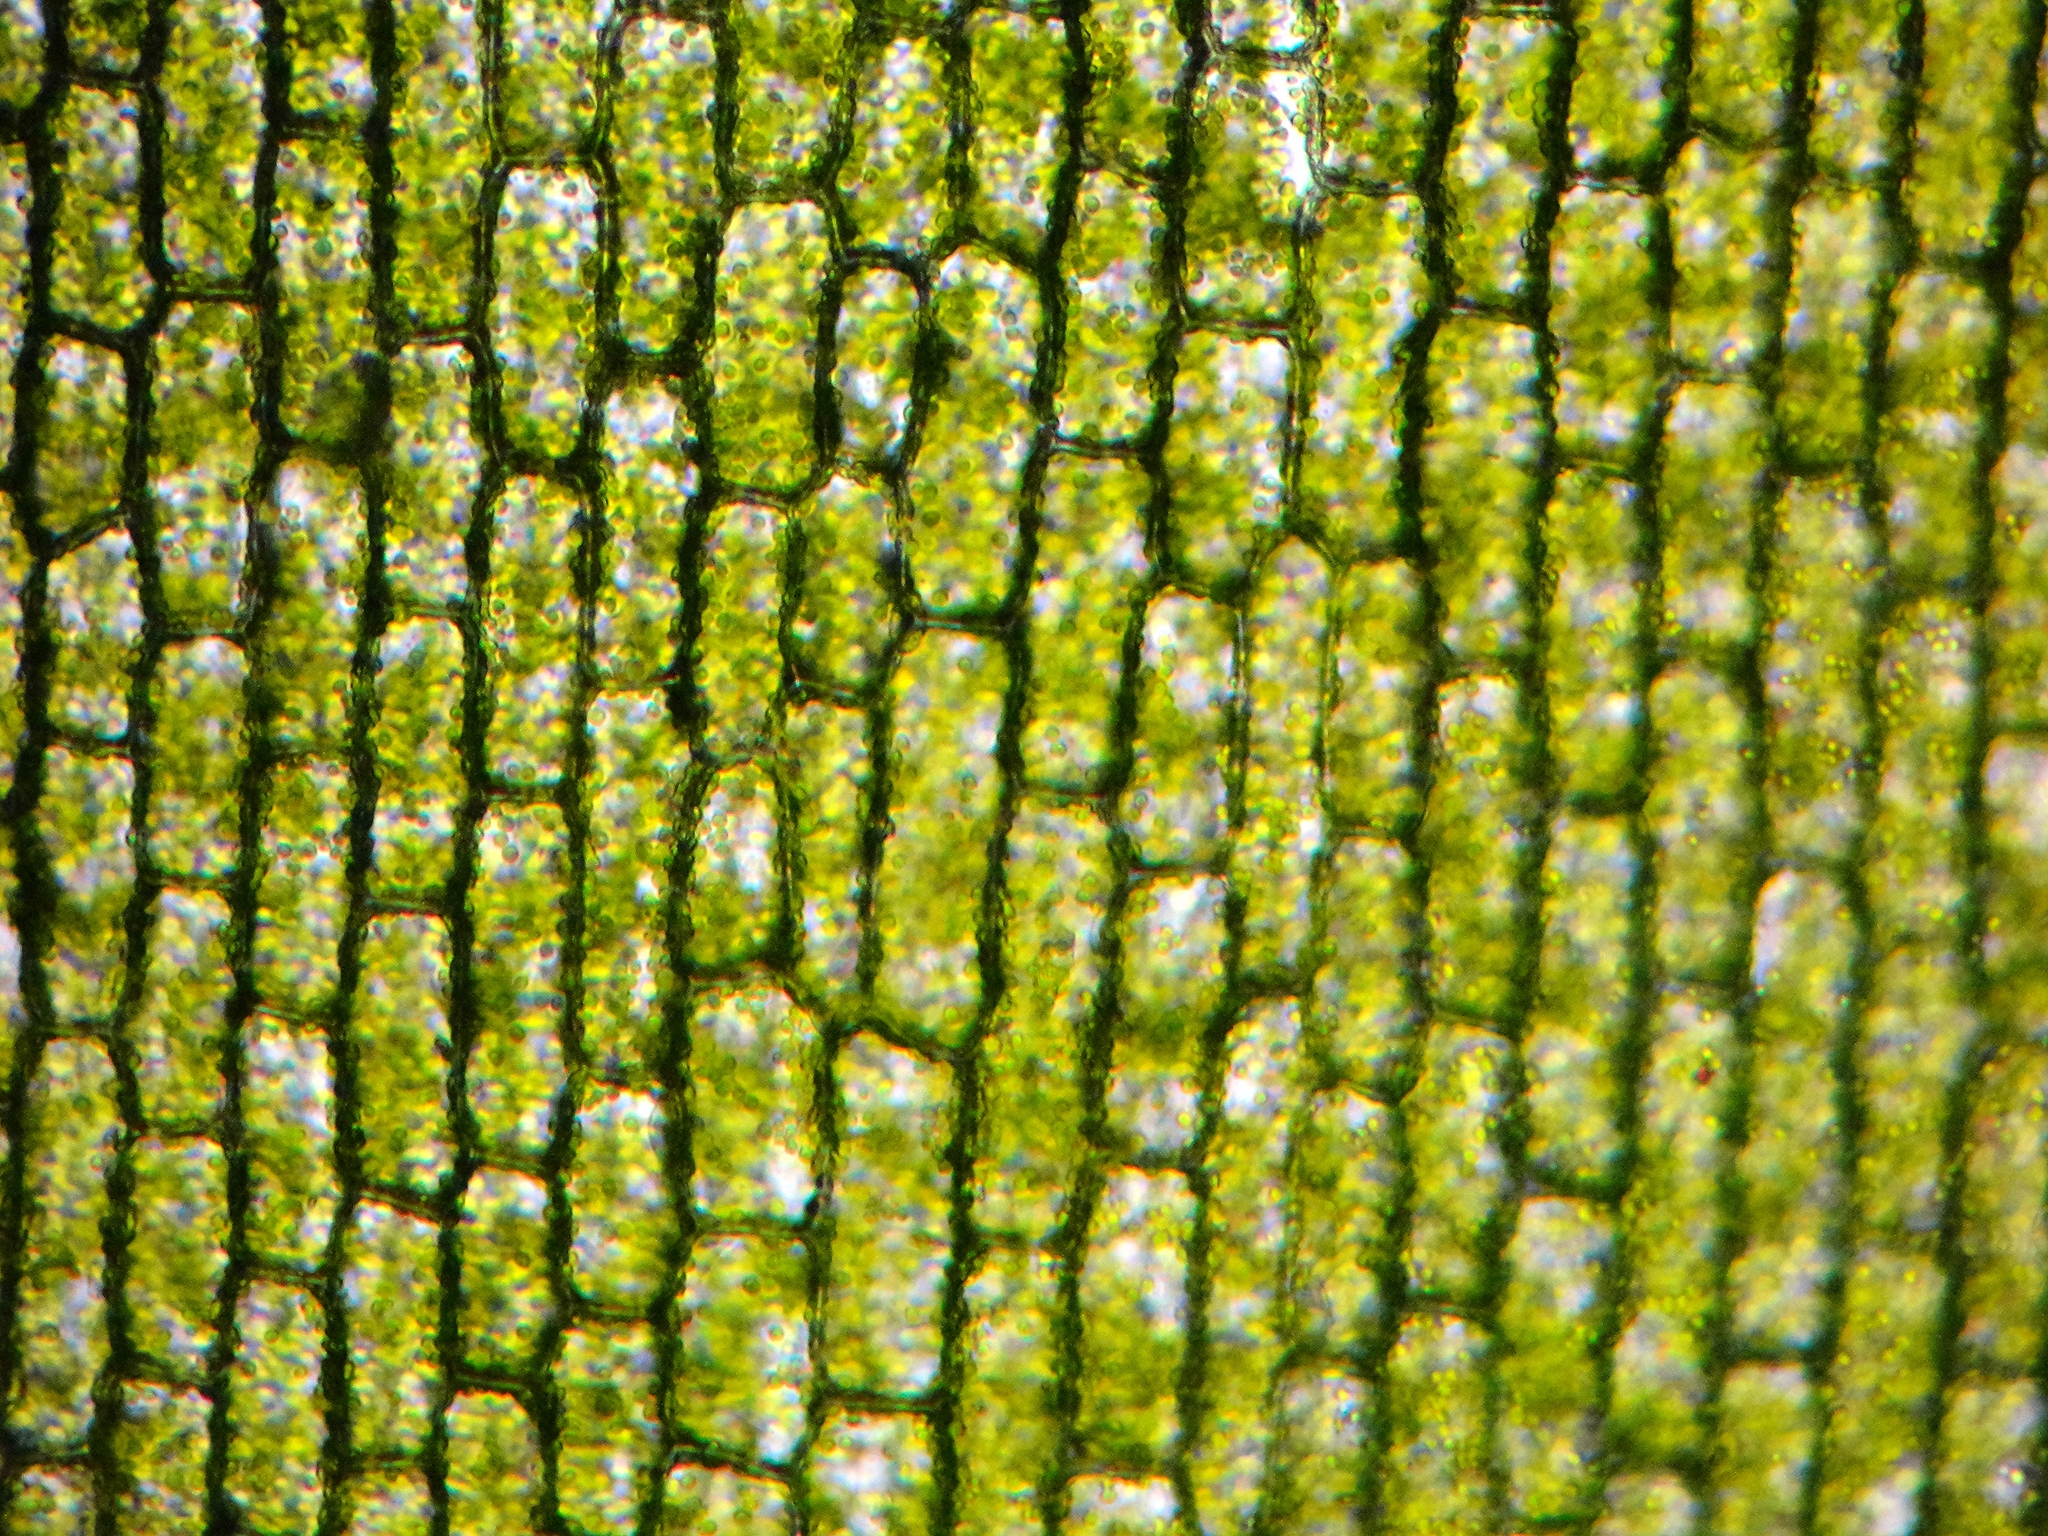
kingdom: Plantae
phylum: Tracheophyta
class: Liliopsida
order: Alismatales
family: Hydrocharitaceae
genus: Elodea
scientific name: Elodea canadensis
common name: Canadian waterweed
